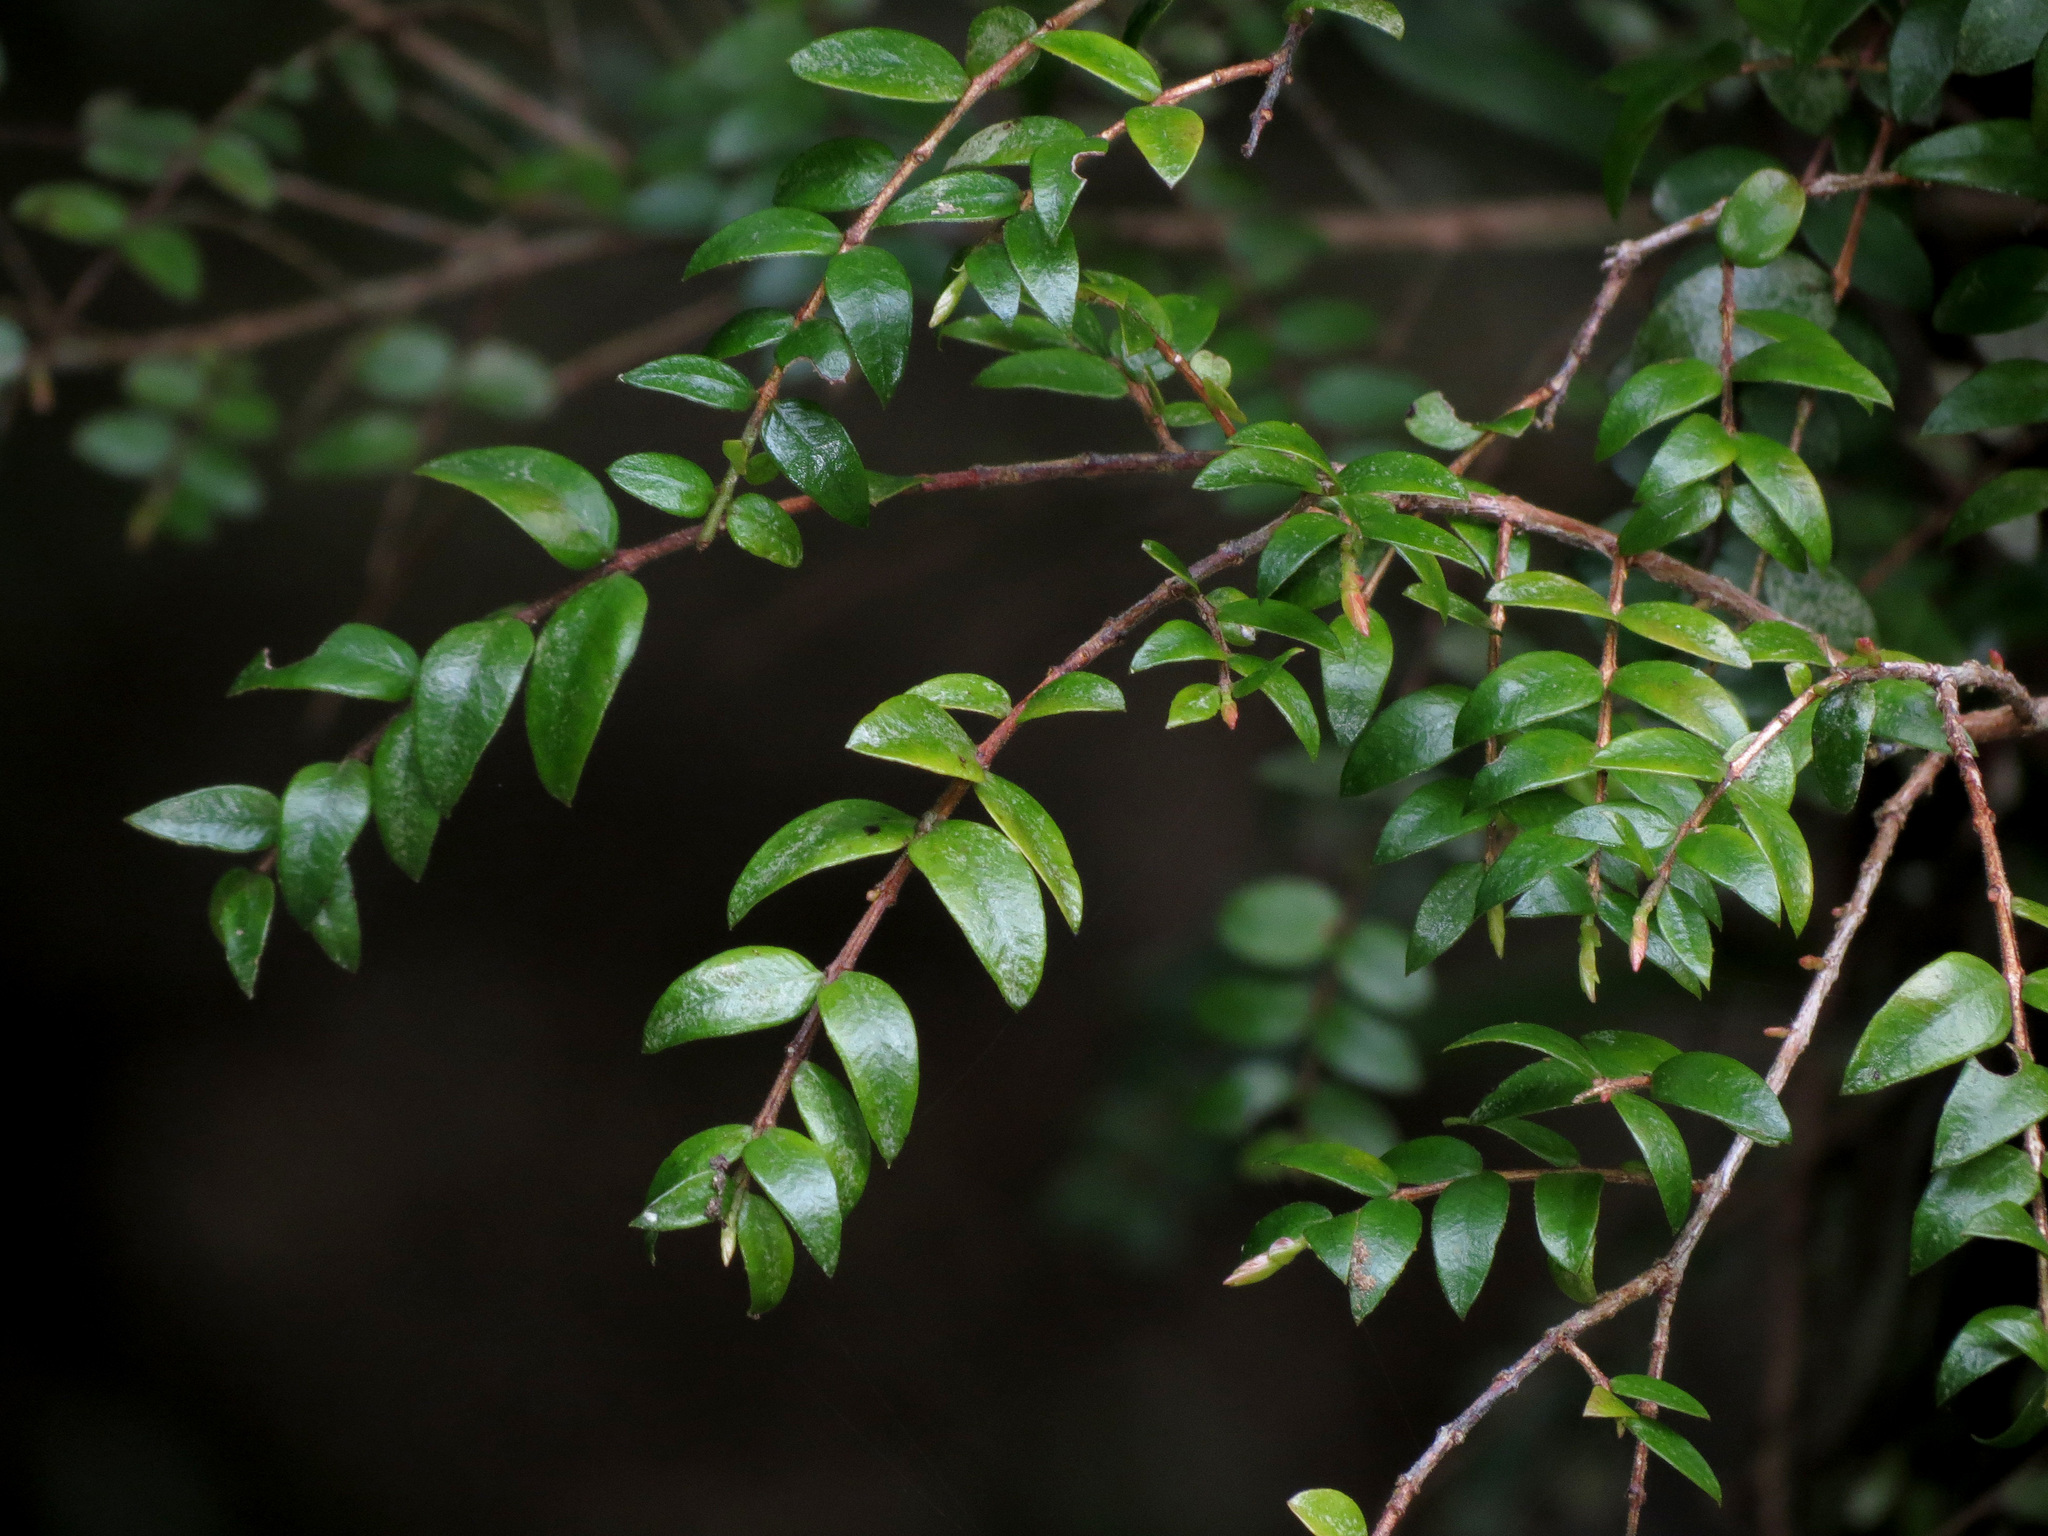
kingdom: Plantae
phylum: Tracheophyta
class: Magnoliopsida
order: Myrtales
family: Myrtaceae
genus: Metrosideros
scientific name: Metrosideros diffusa
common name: Small ratavine
